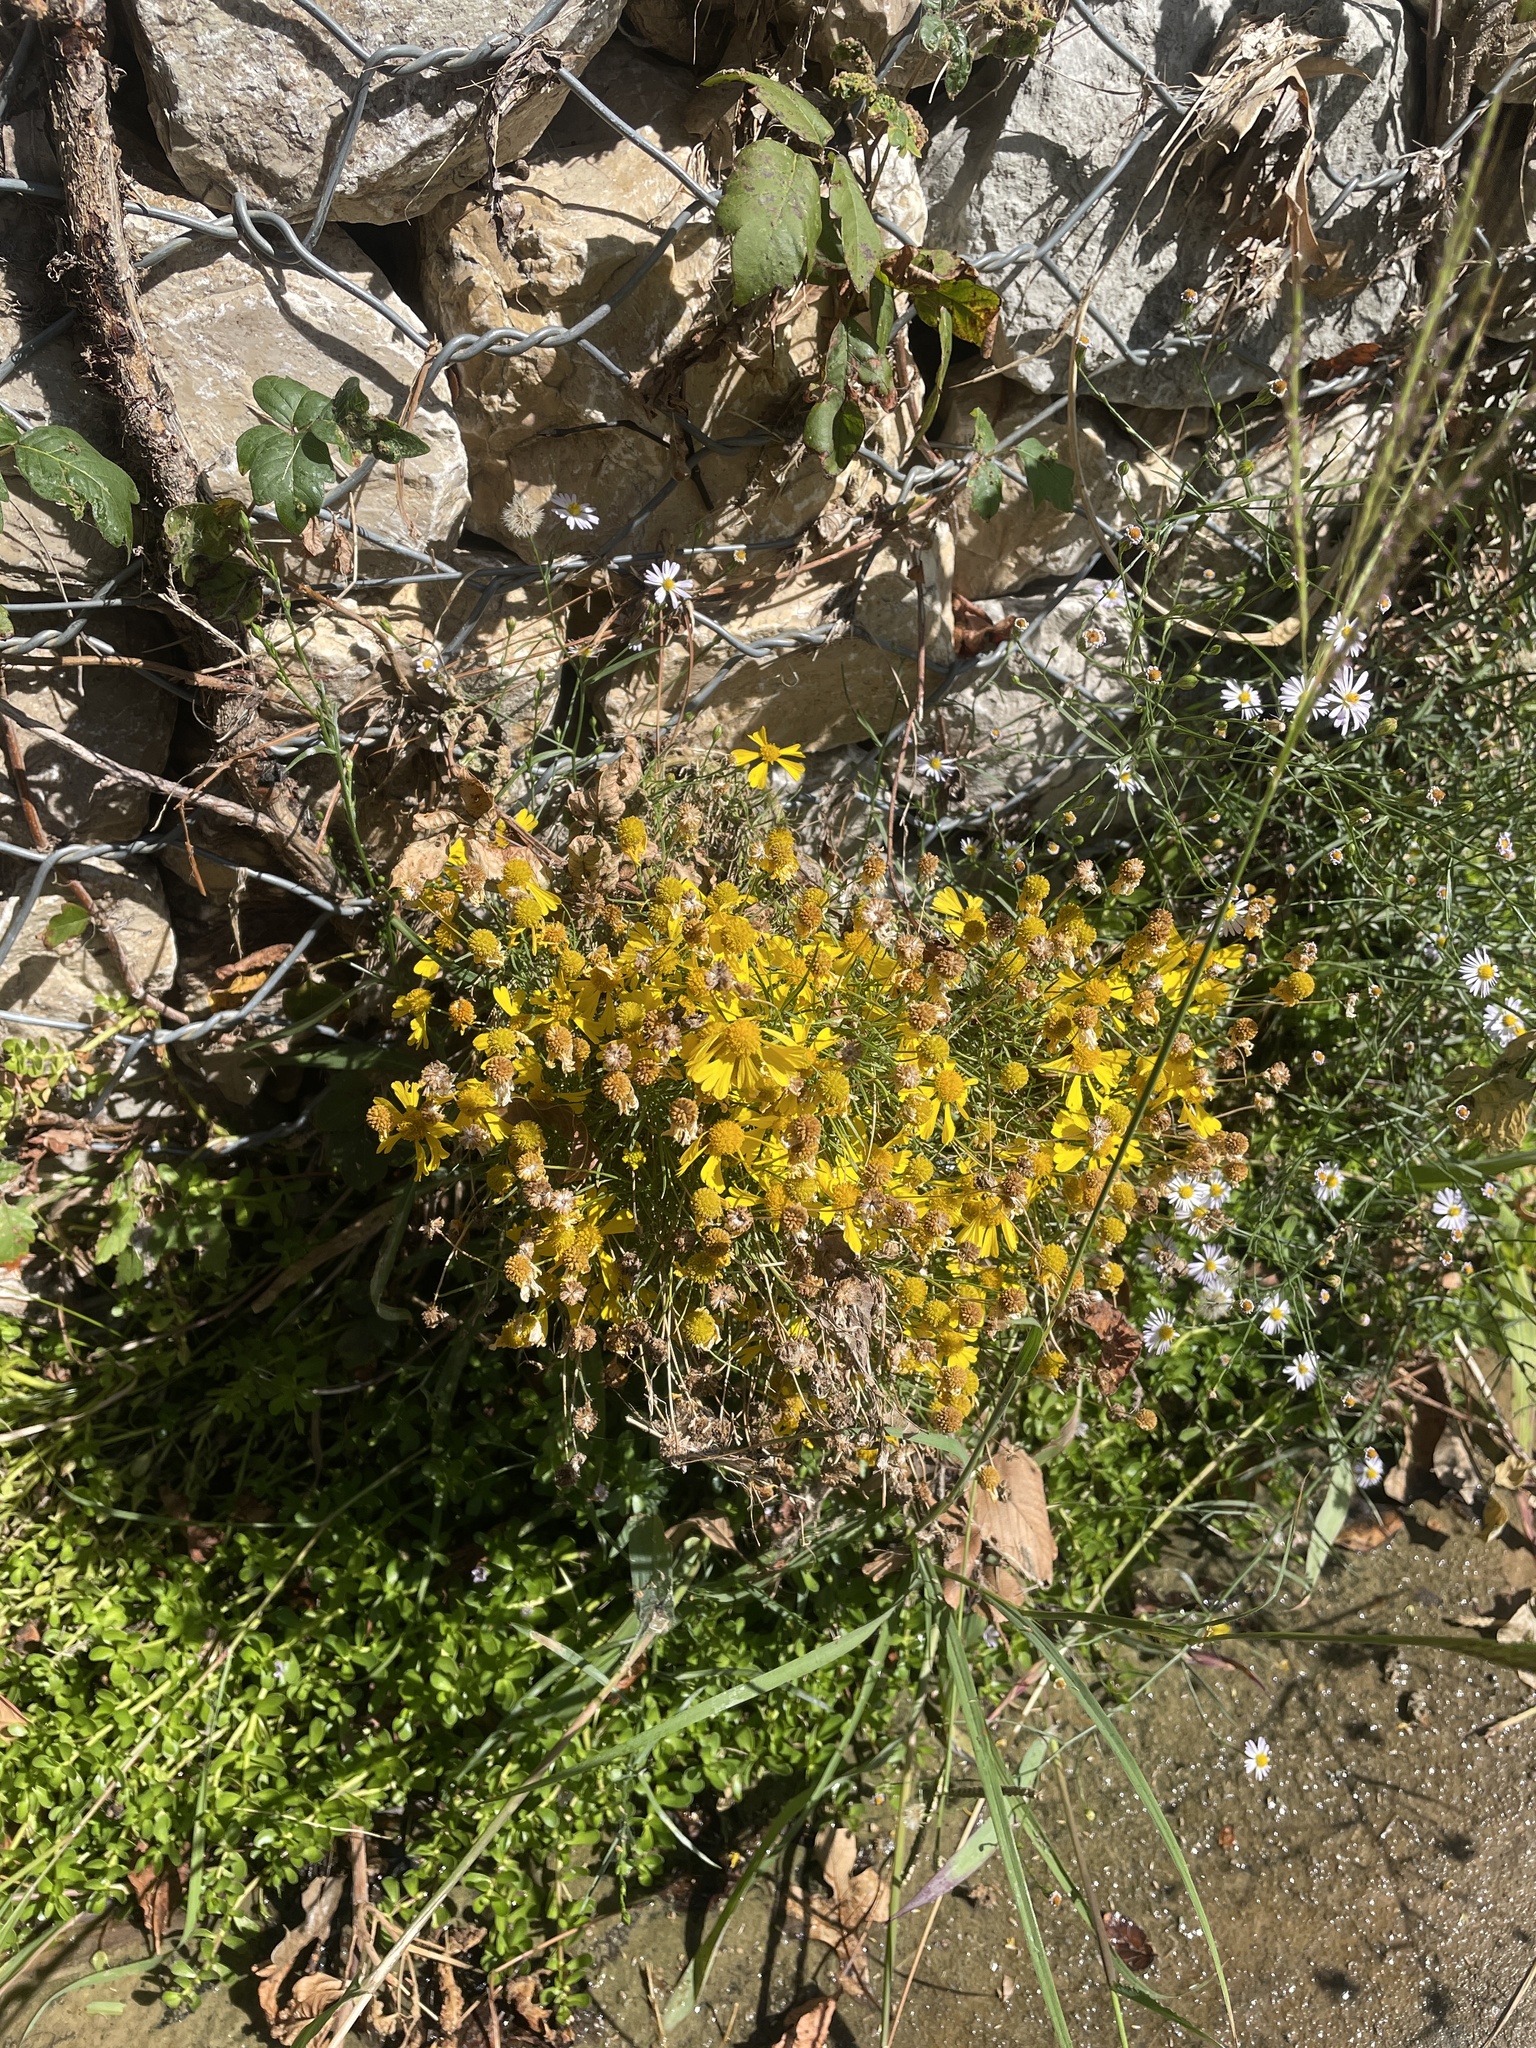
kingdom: Plantae
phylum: Tracheophyta
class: Magnoliopsida
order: Asterales
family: Asteraceae
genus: Helenium
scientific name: Helenium amarum
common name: Bitter sneezeweed
